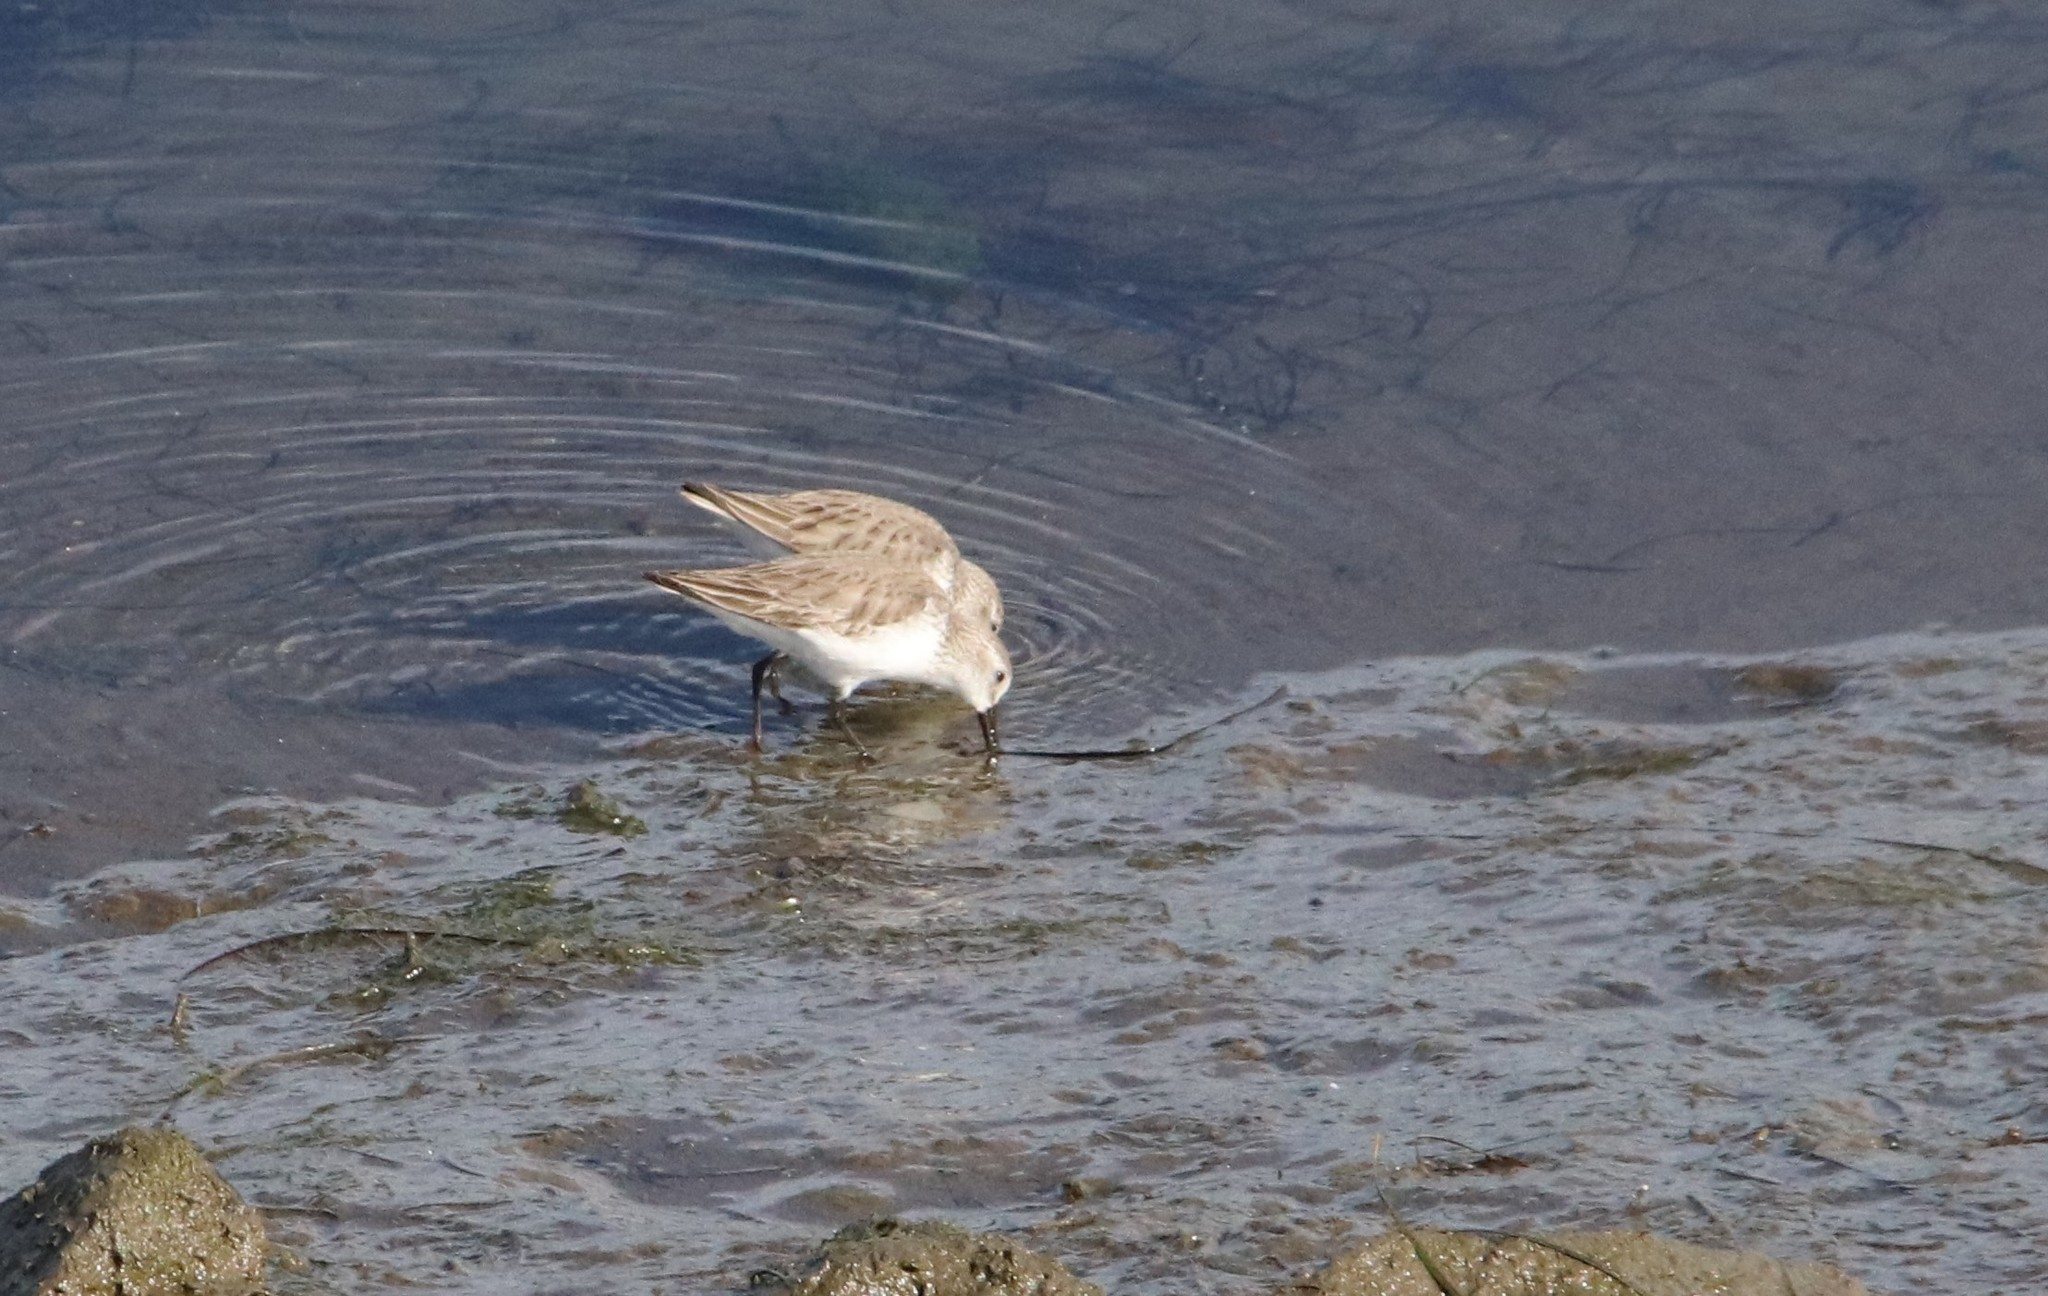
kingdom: Animalia
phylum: Chordata
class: Aves
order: Charadriiformes
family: Scolopacidae
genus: Calidris
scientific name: Calidris mauri
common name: Western sandpiper
